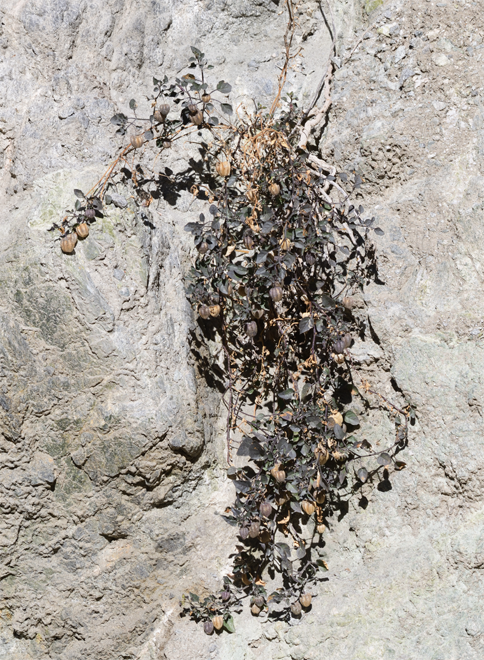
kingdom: Plantae
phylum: Tracheophyta
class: Magnoliopsida
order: Solanales
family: Solanaceae
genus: Physalis
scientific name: Physalis crassifolia
